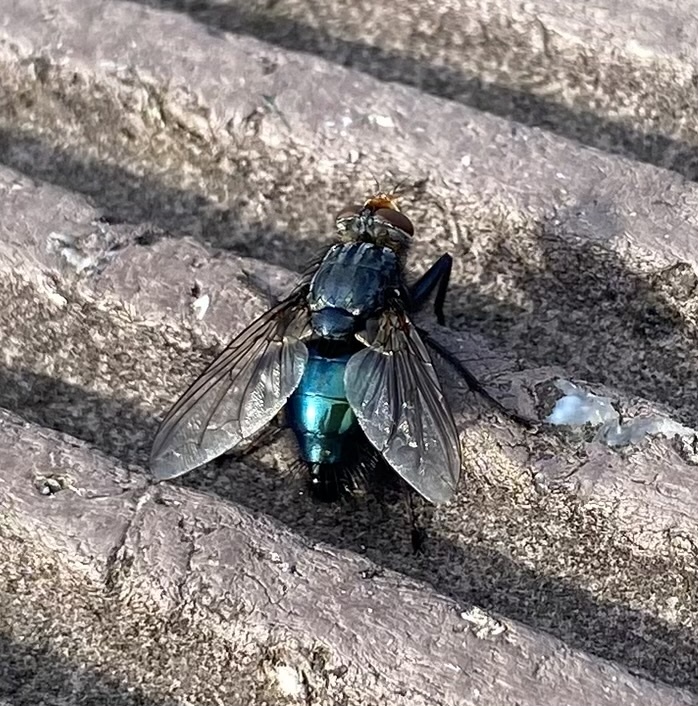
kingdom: Animalia
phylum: Arthropoda
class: Insecta
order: Diptera
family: Calliphoridae
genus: Cynomya
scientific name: Cynomya mortuorum
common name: Bluebottle blow fly
